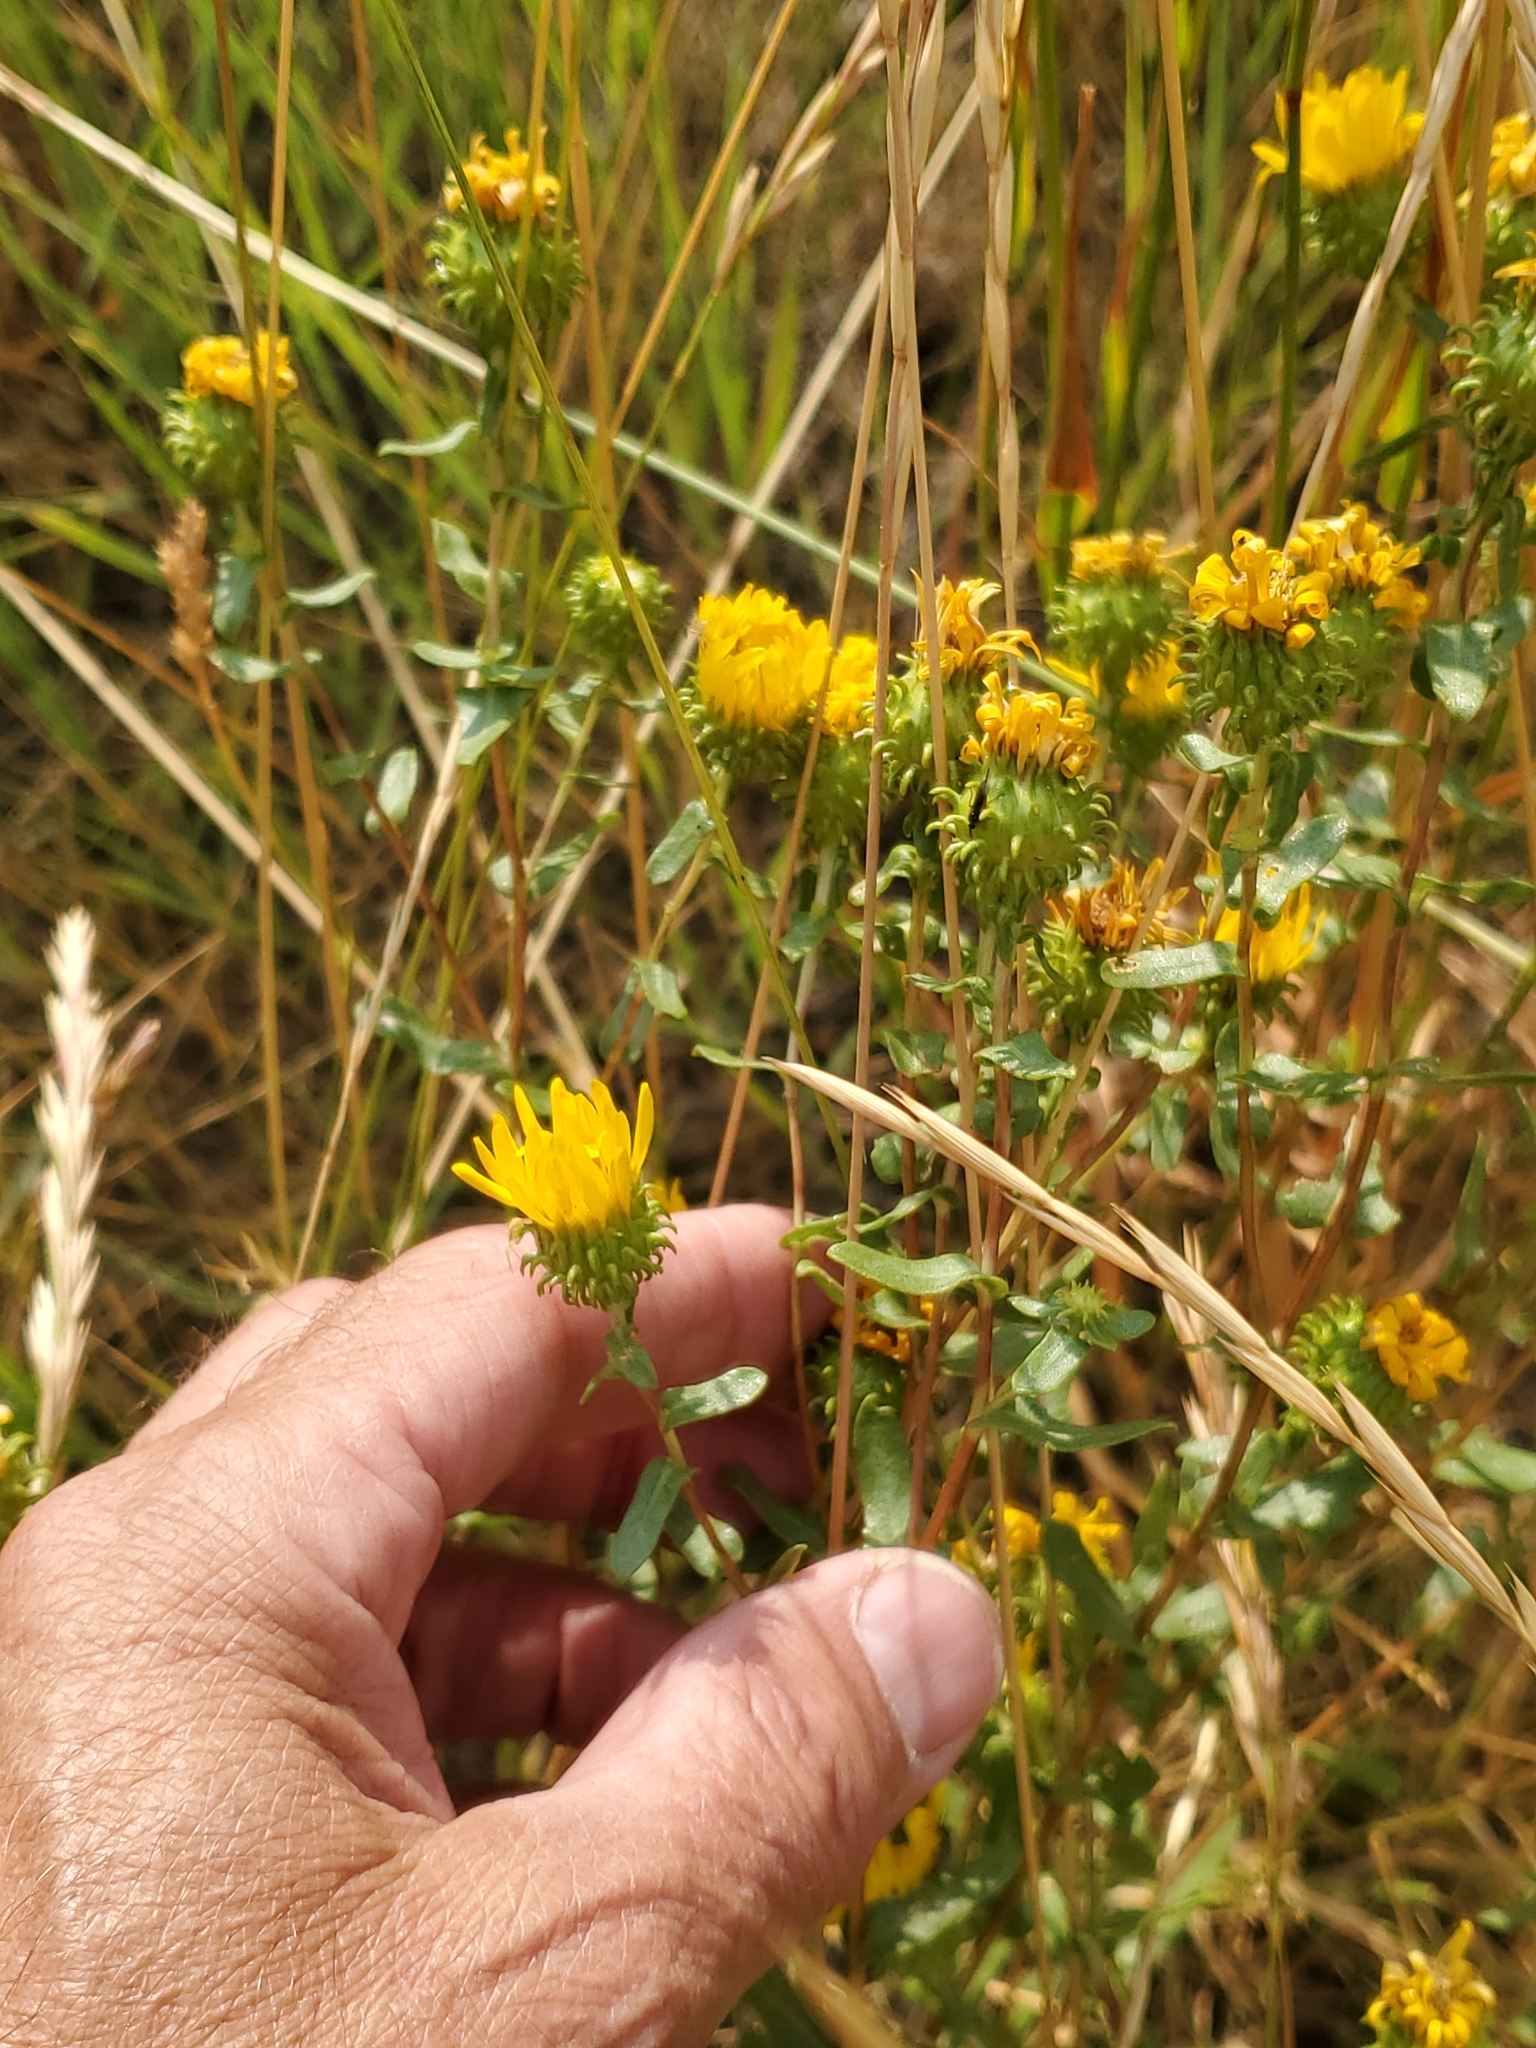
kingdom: Plantae
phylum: Tracheophyta
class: Magnoliopsida
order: Asterales
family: Asteraceae
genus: Grindelia
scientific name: Grindelia squarrosa
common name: Curly-cup gumweed
